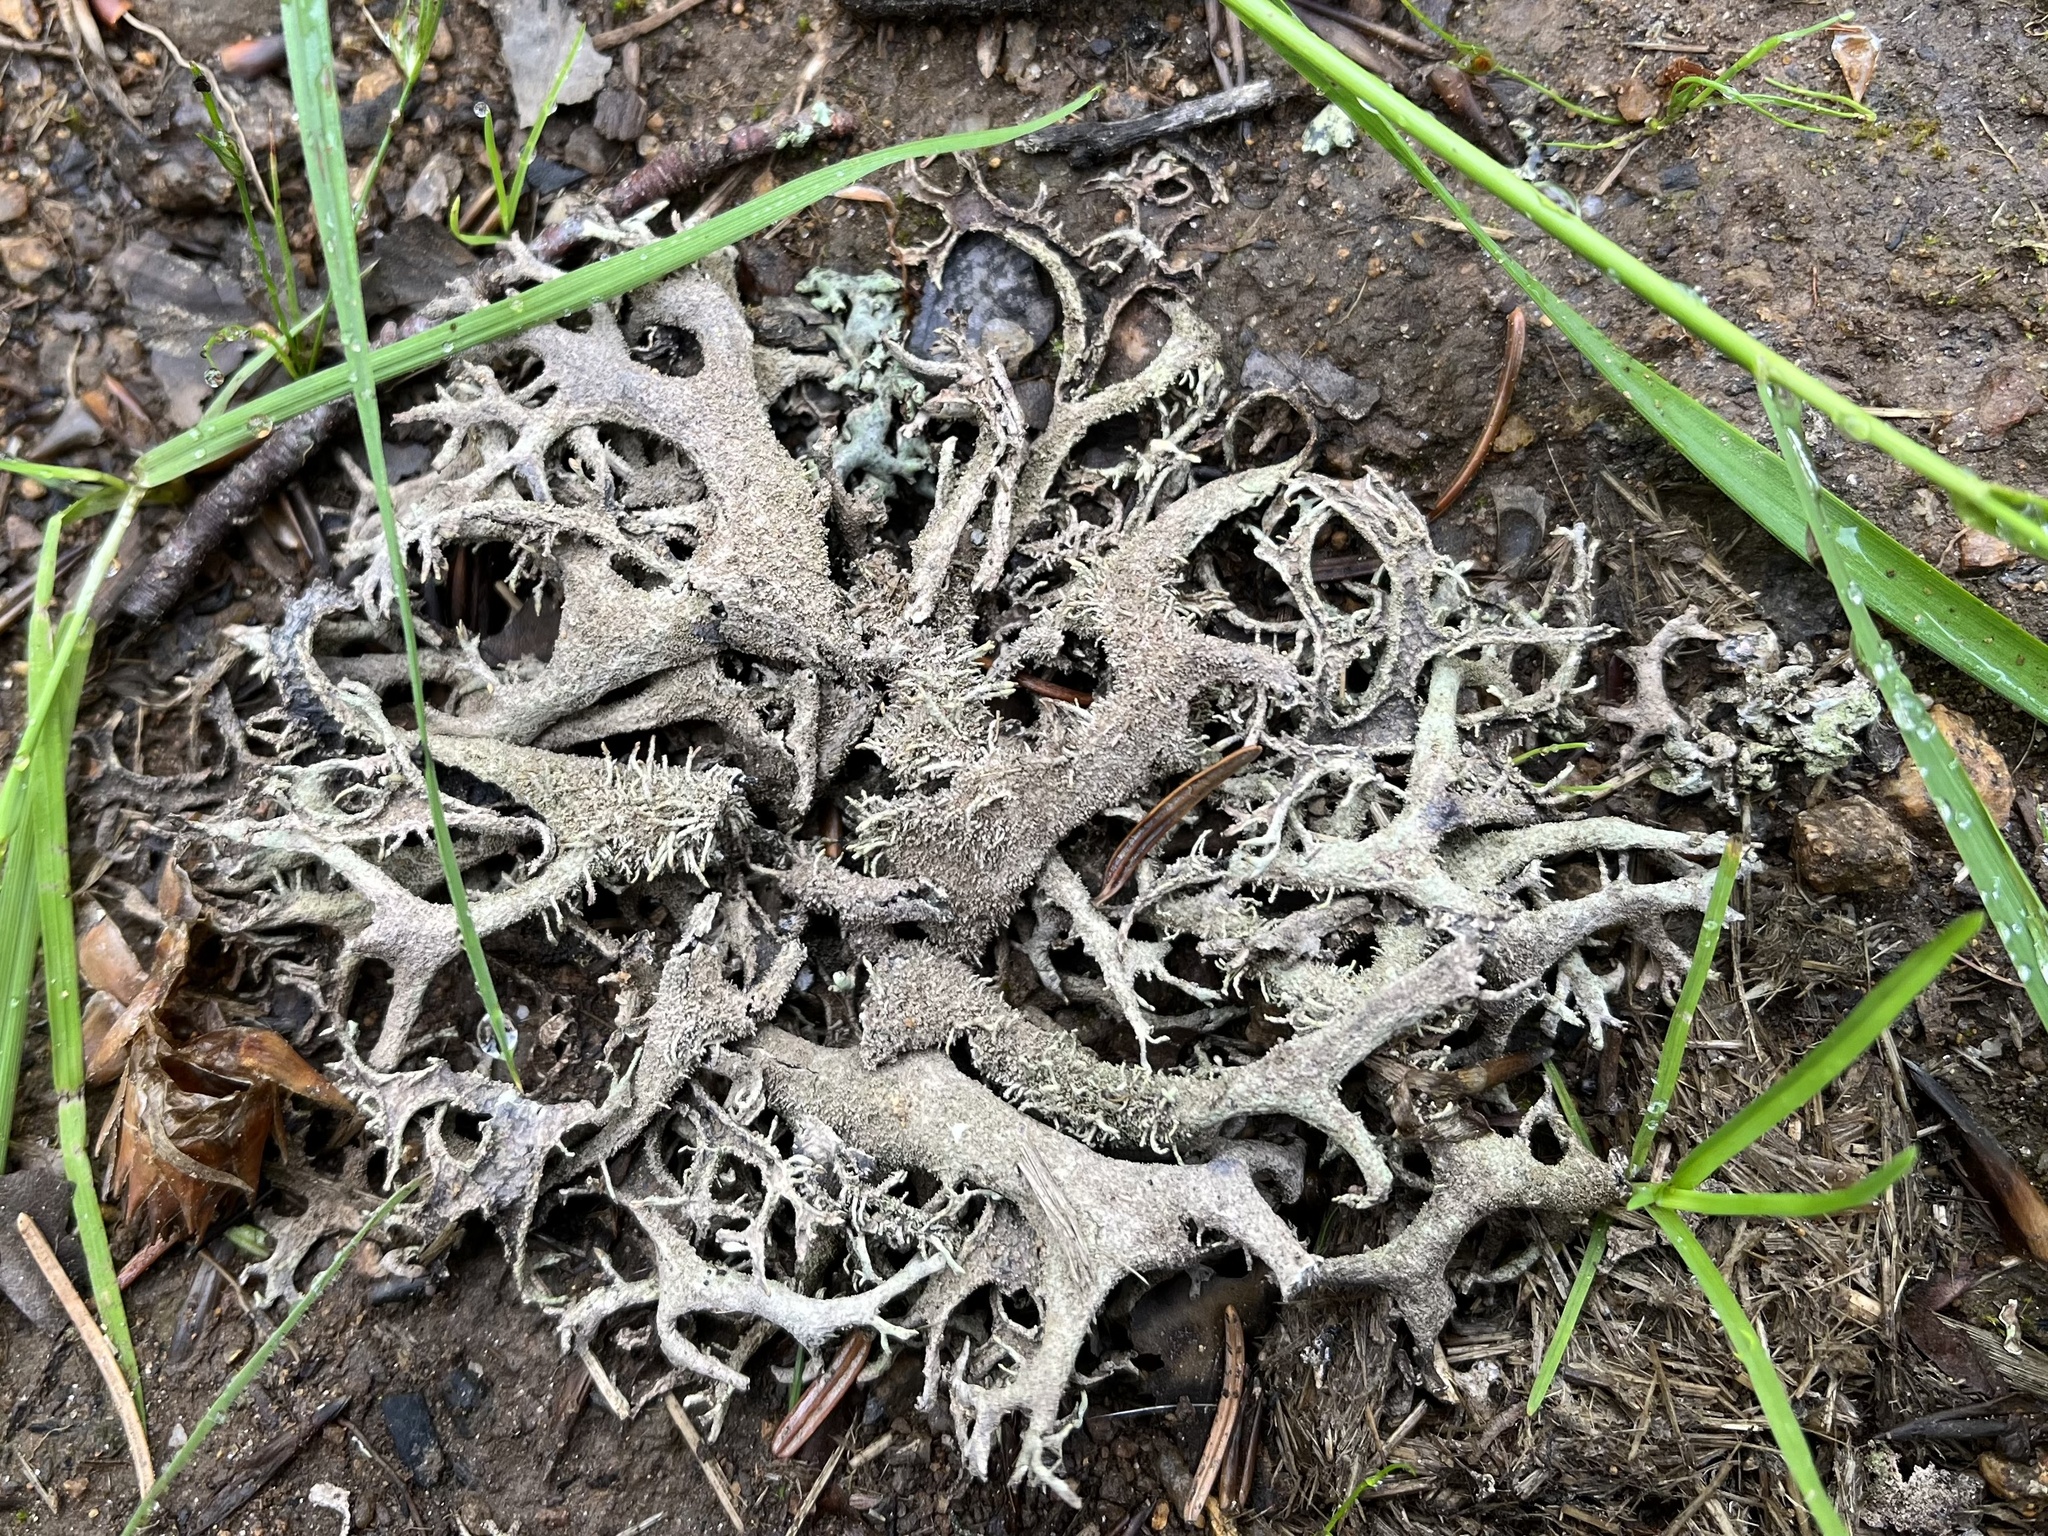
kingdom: Fungi
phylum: Ascomycota
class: Lecanoromycetes
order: Lecanorales
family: Parmeliaceae
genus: Pseudevernia
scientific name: Pseudevernia furfuracea
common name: Tree moss
